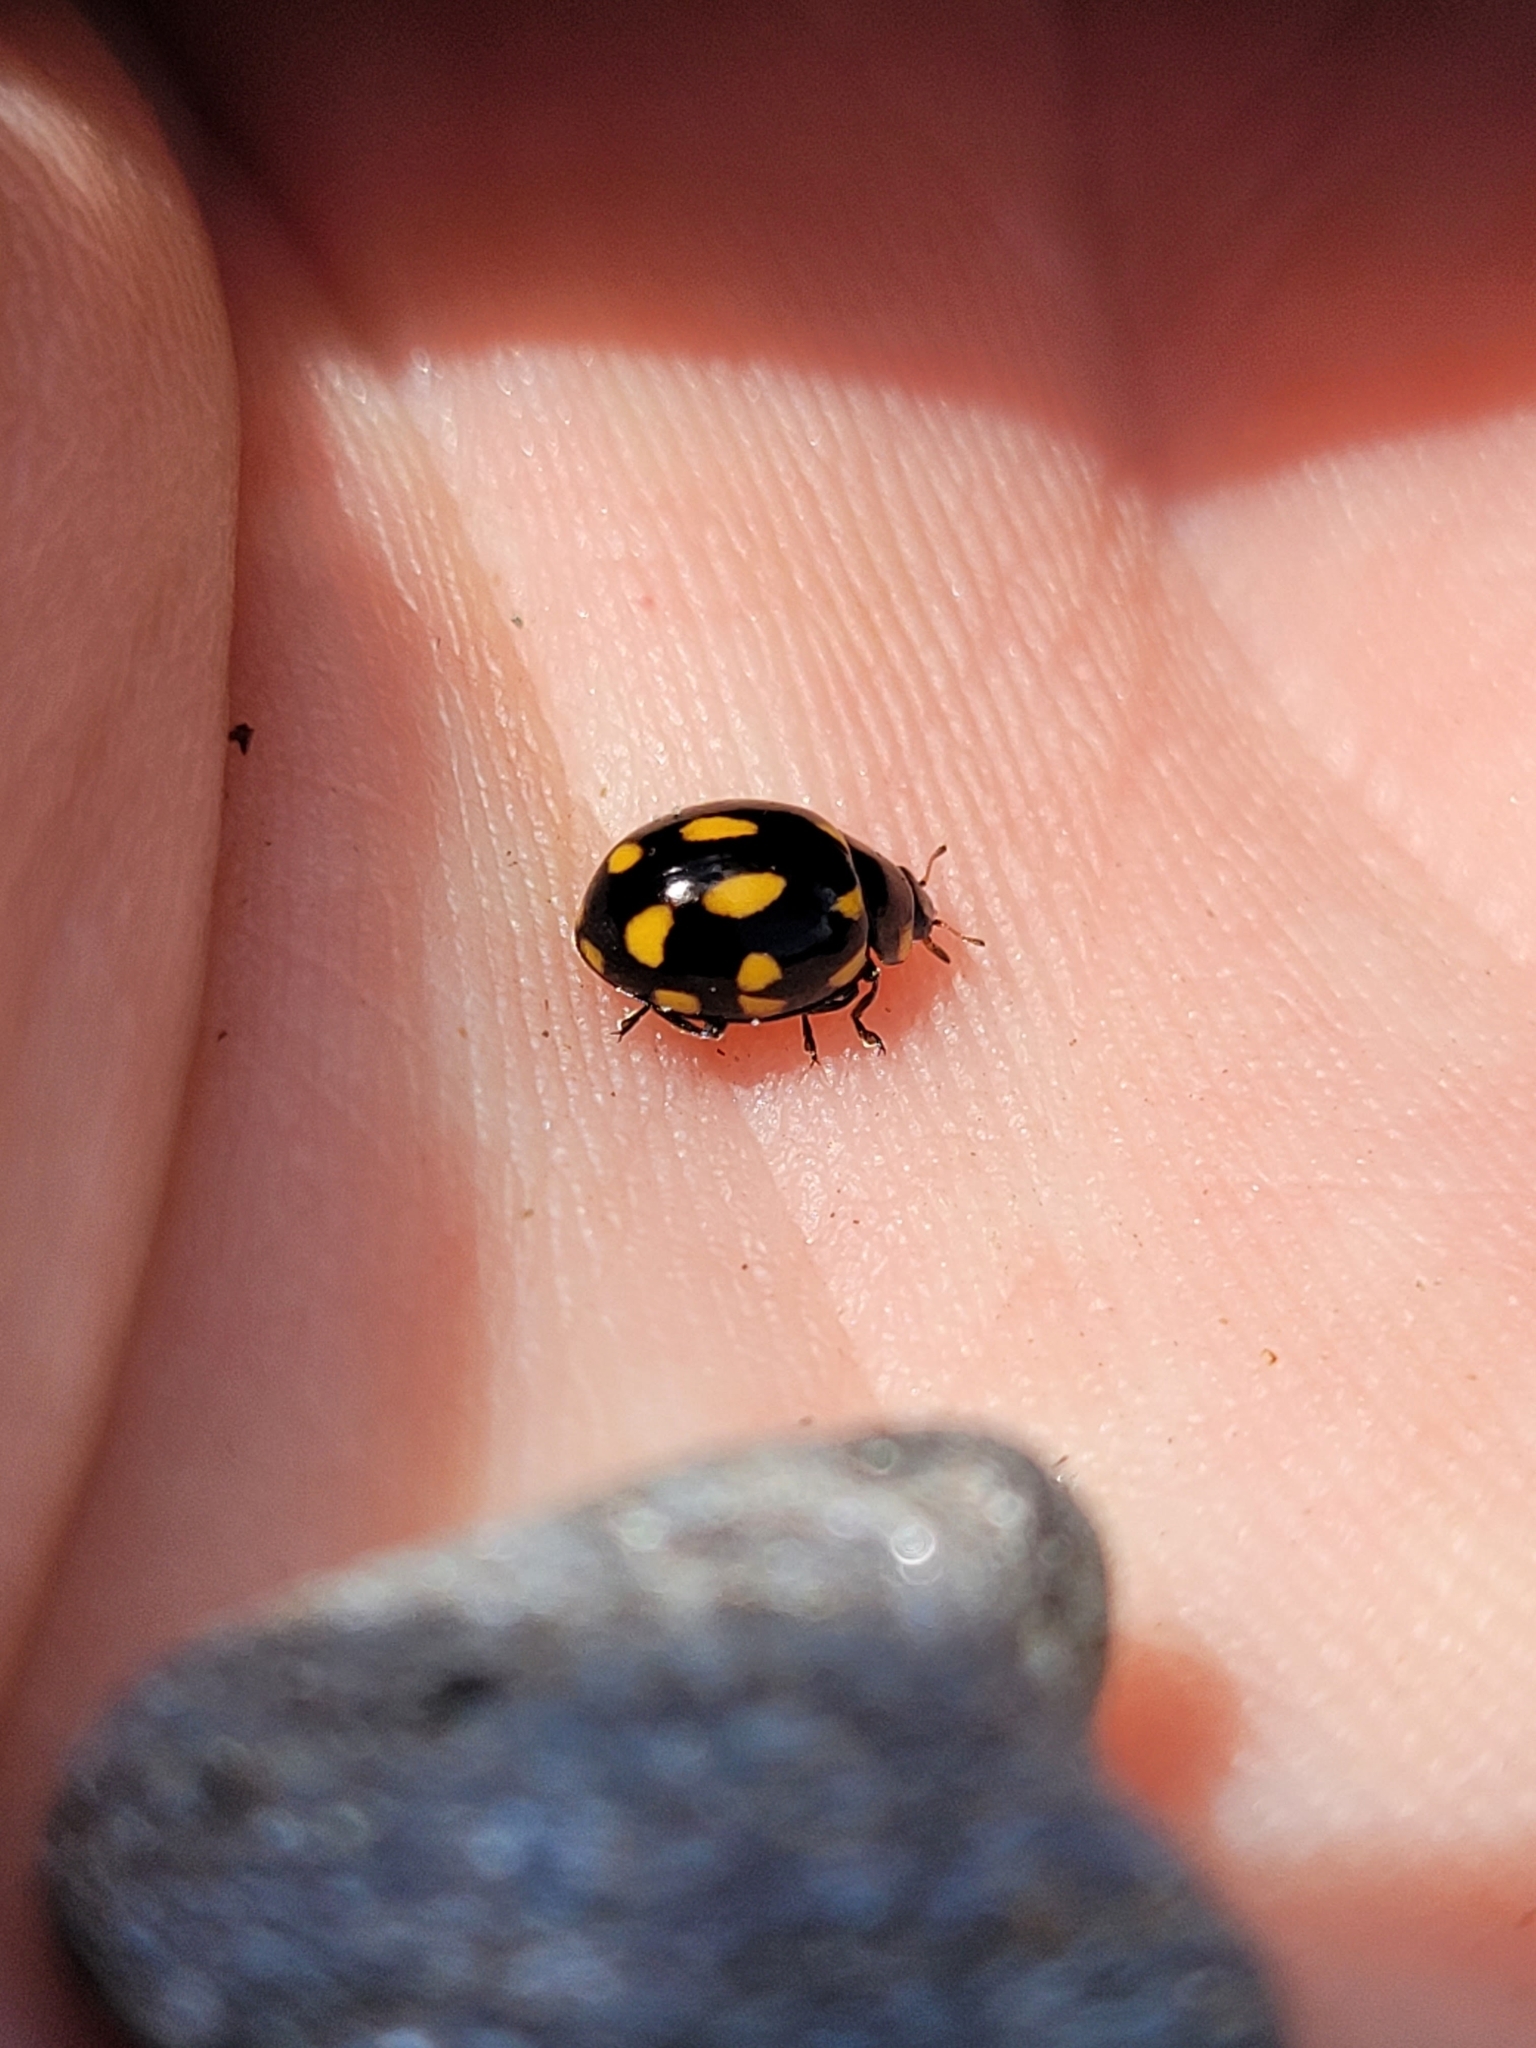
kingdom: Animalia
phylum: Arthropoda
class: Insecta
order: Coleoptera
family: Coccinellidae
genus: Coccinella
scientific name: Coccinella leonina
